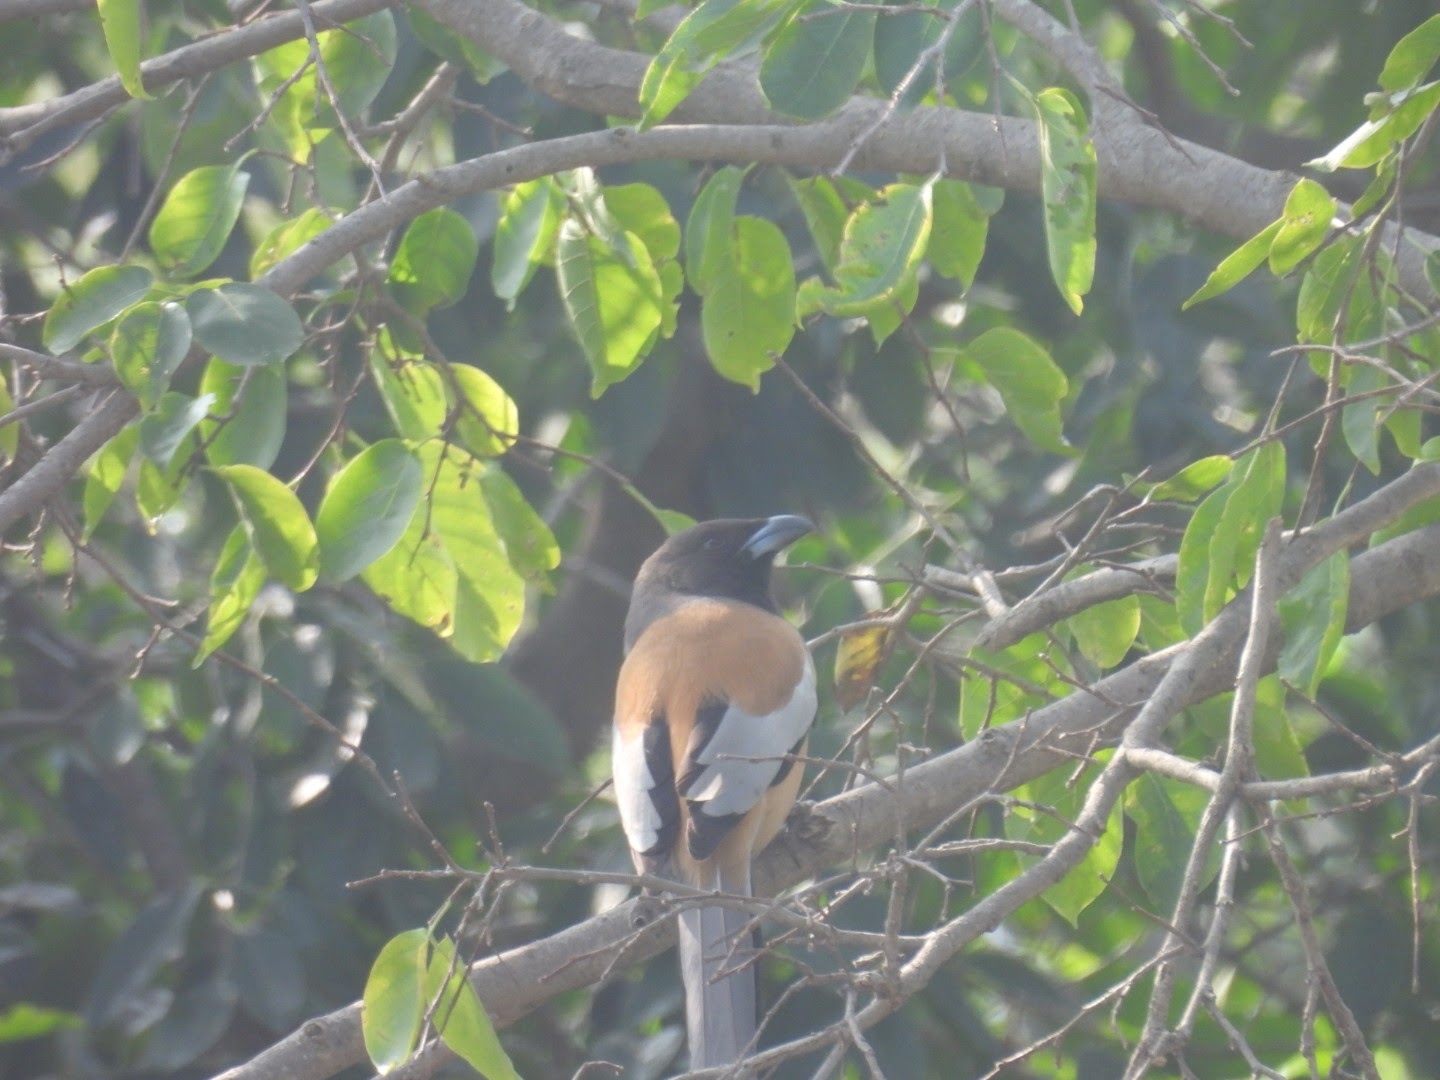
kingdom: Animalia
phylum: Chordata
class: Aves
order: Passeriformes
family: Corvidae
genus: Dendrocitta
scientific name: Dendrocitta vagabunda
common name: Rufous treepie
